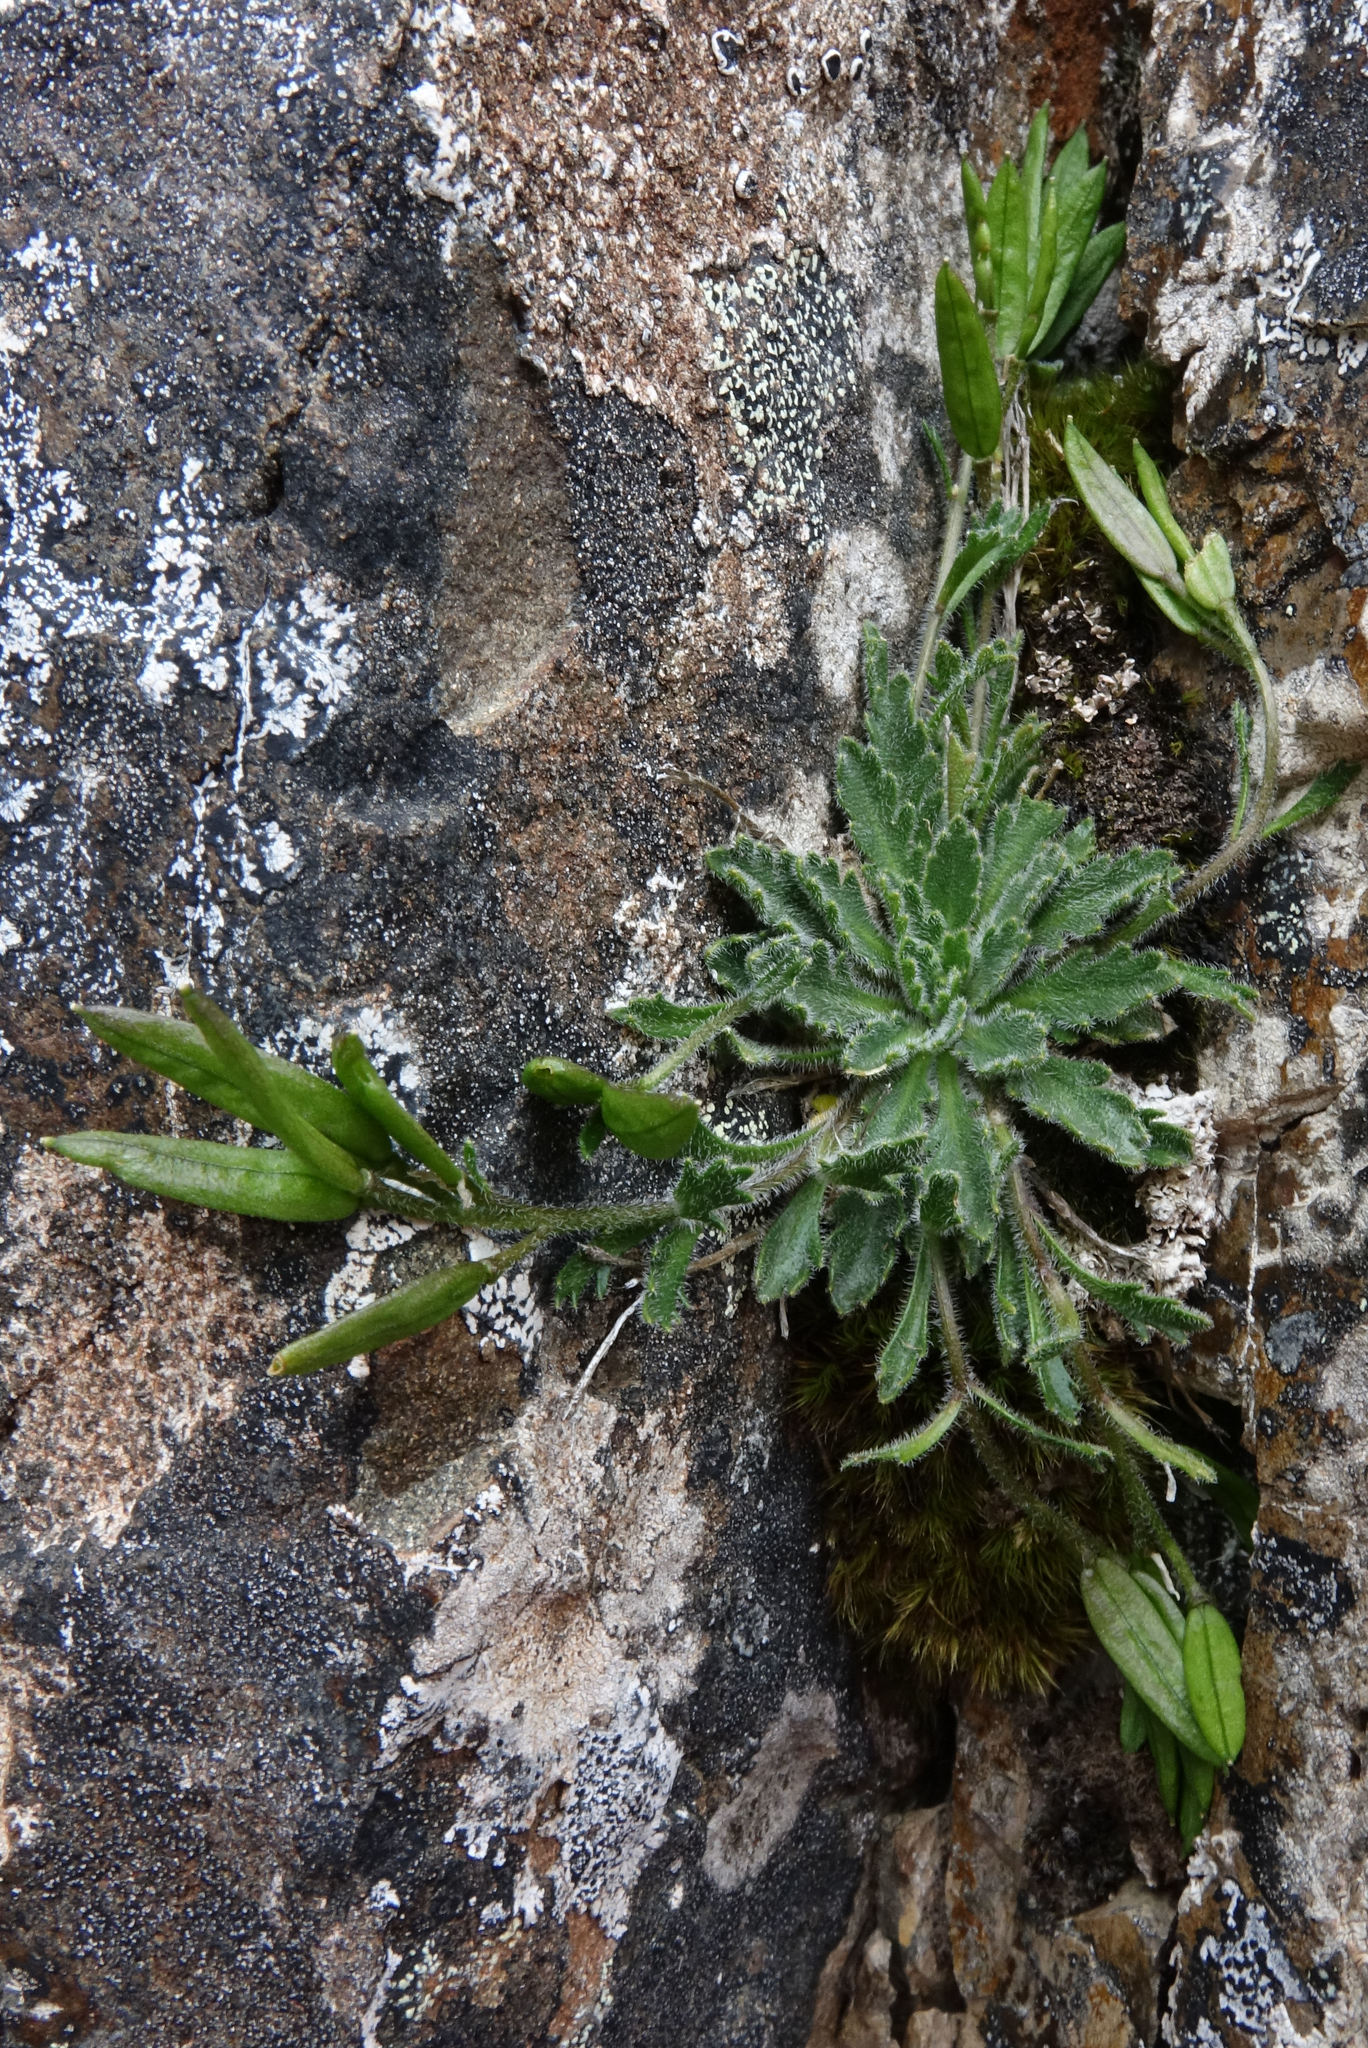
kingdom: Plantae
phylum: Tracheophyta
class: Magnoliopsida
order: Brassicales
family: Brassicaceae
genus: Pachycladon
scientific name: Pachycladon novae-zelandiae
